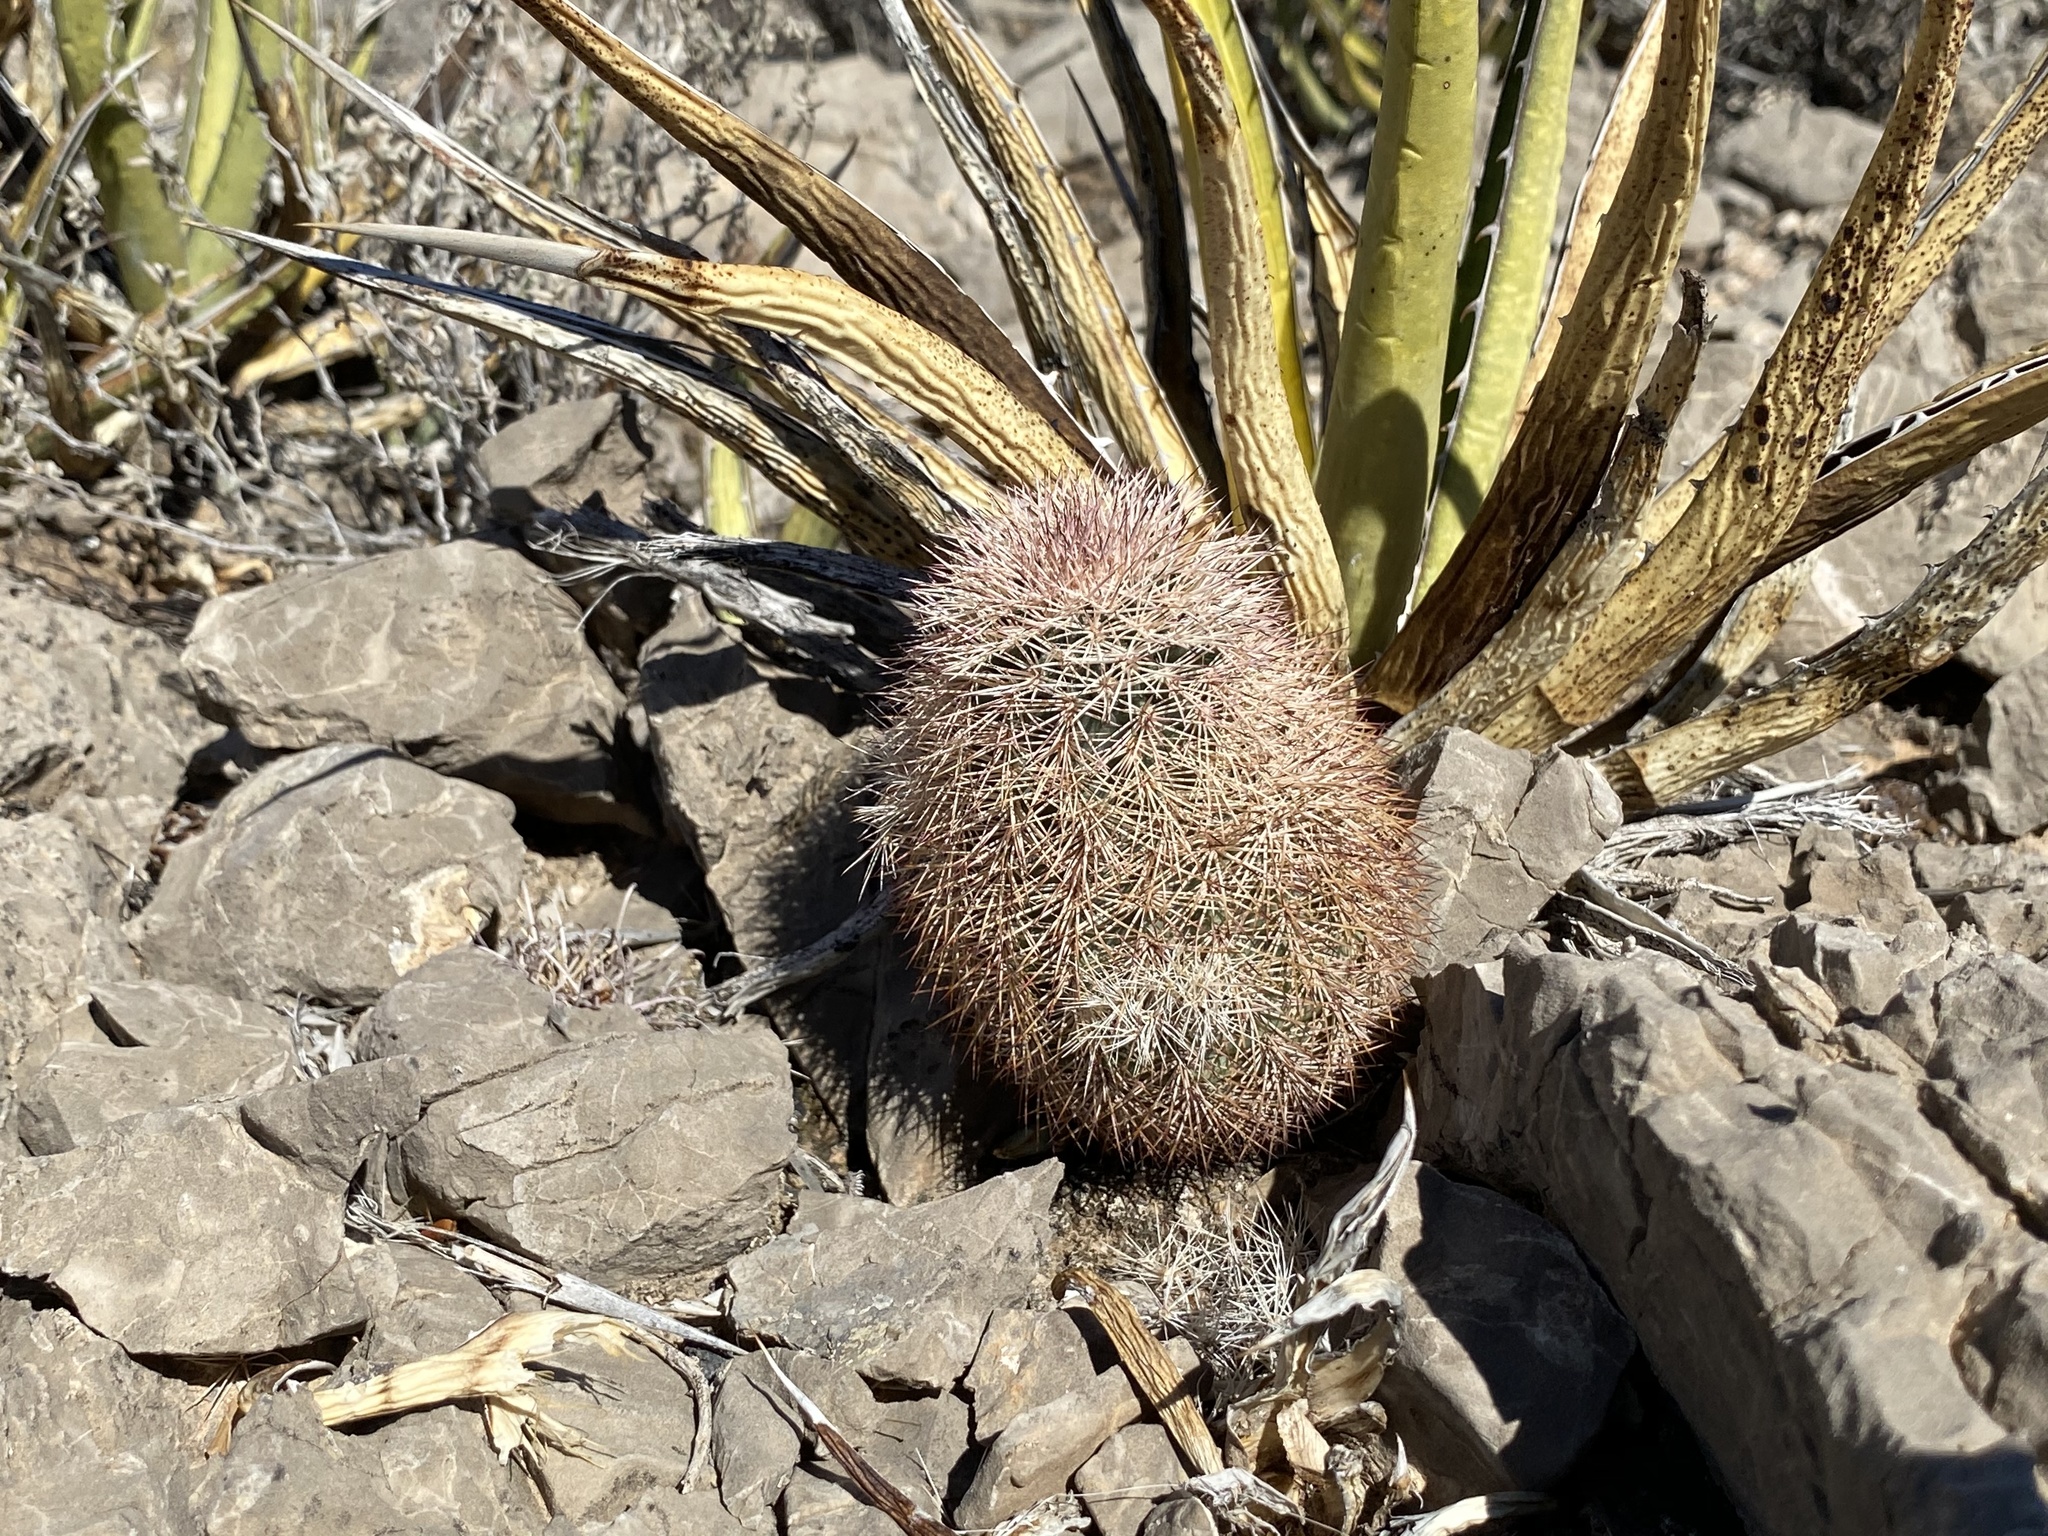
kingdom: Plantae
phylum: Tracheophyta
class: Magnoliopsida
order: Caryophyllales
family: Cactaceae
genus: Echinocereus
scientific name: Echinocereus dasyacanthus
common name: Spiny hedgehog cactus
